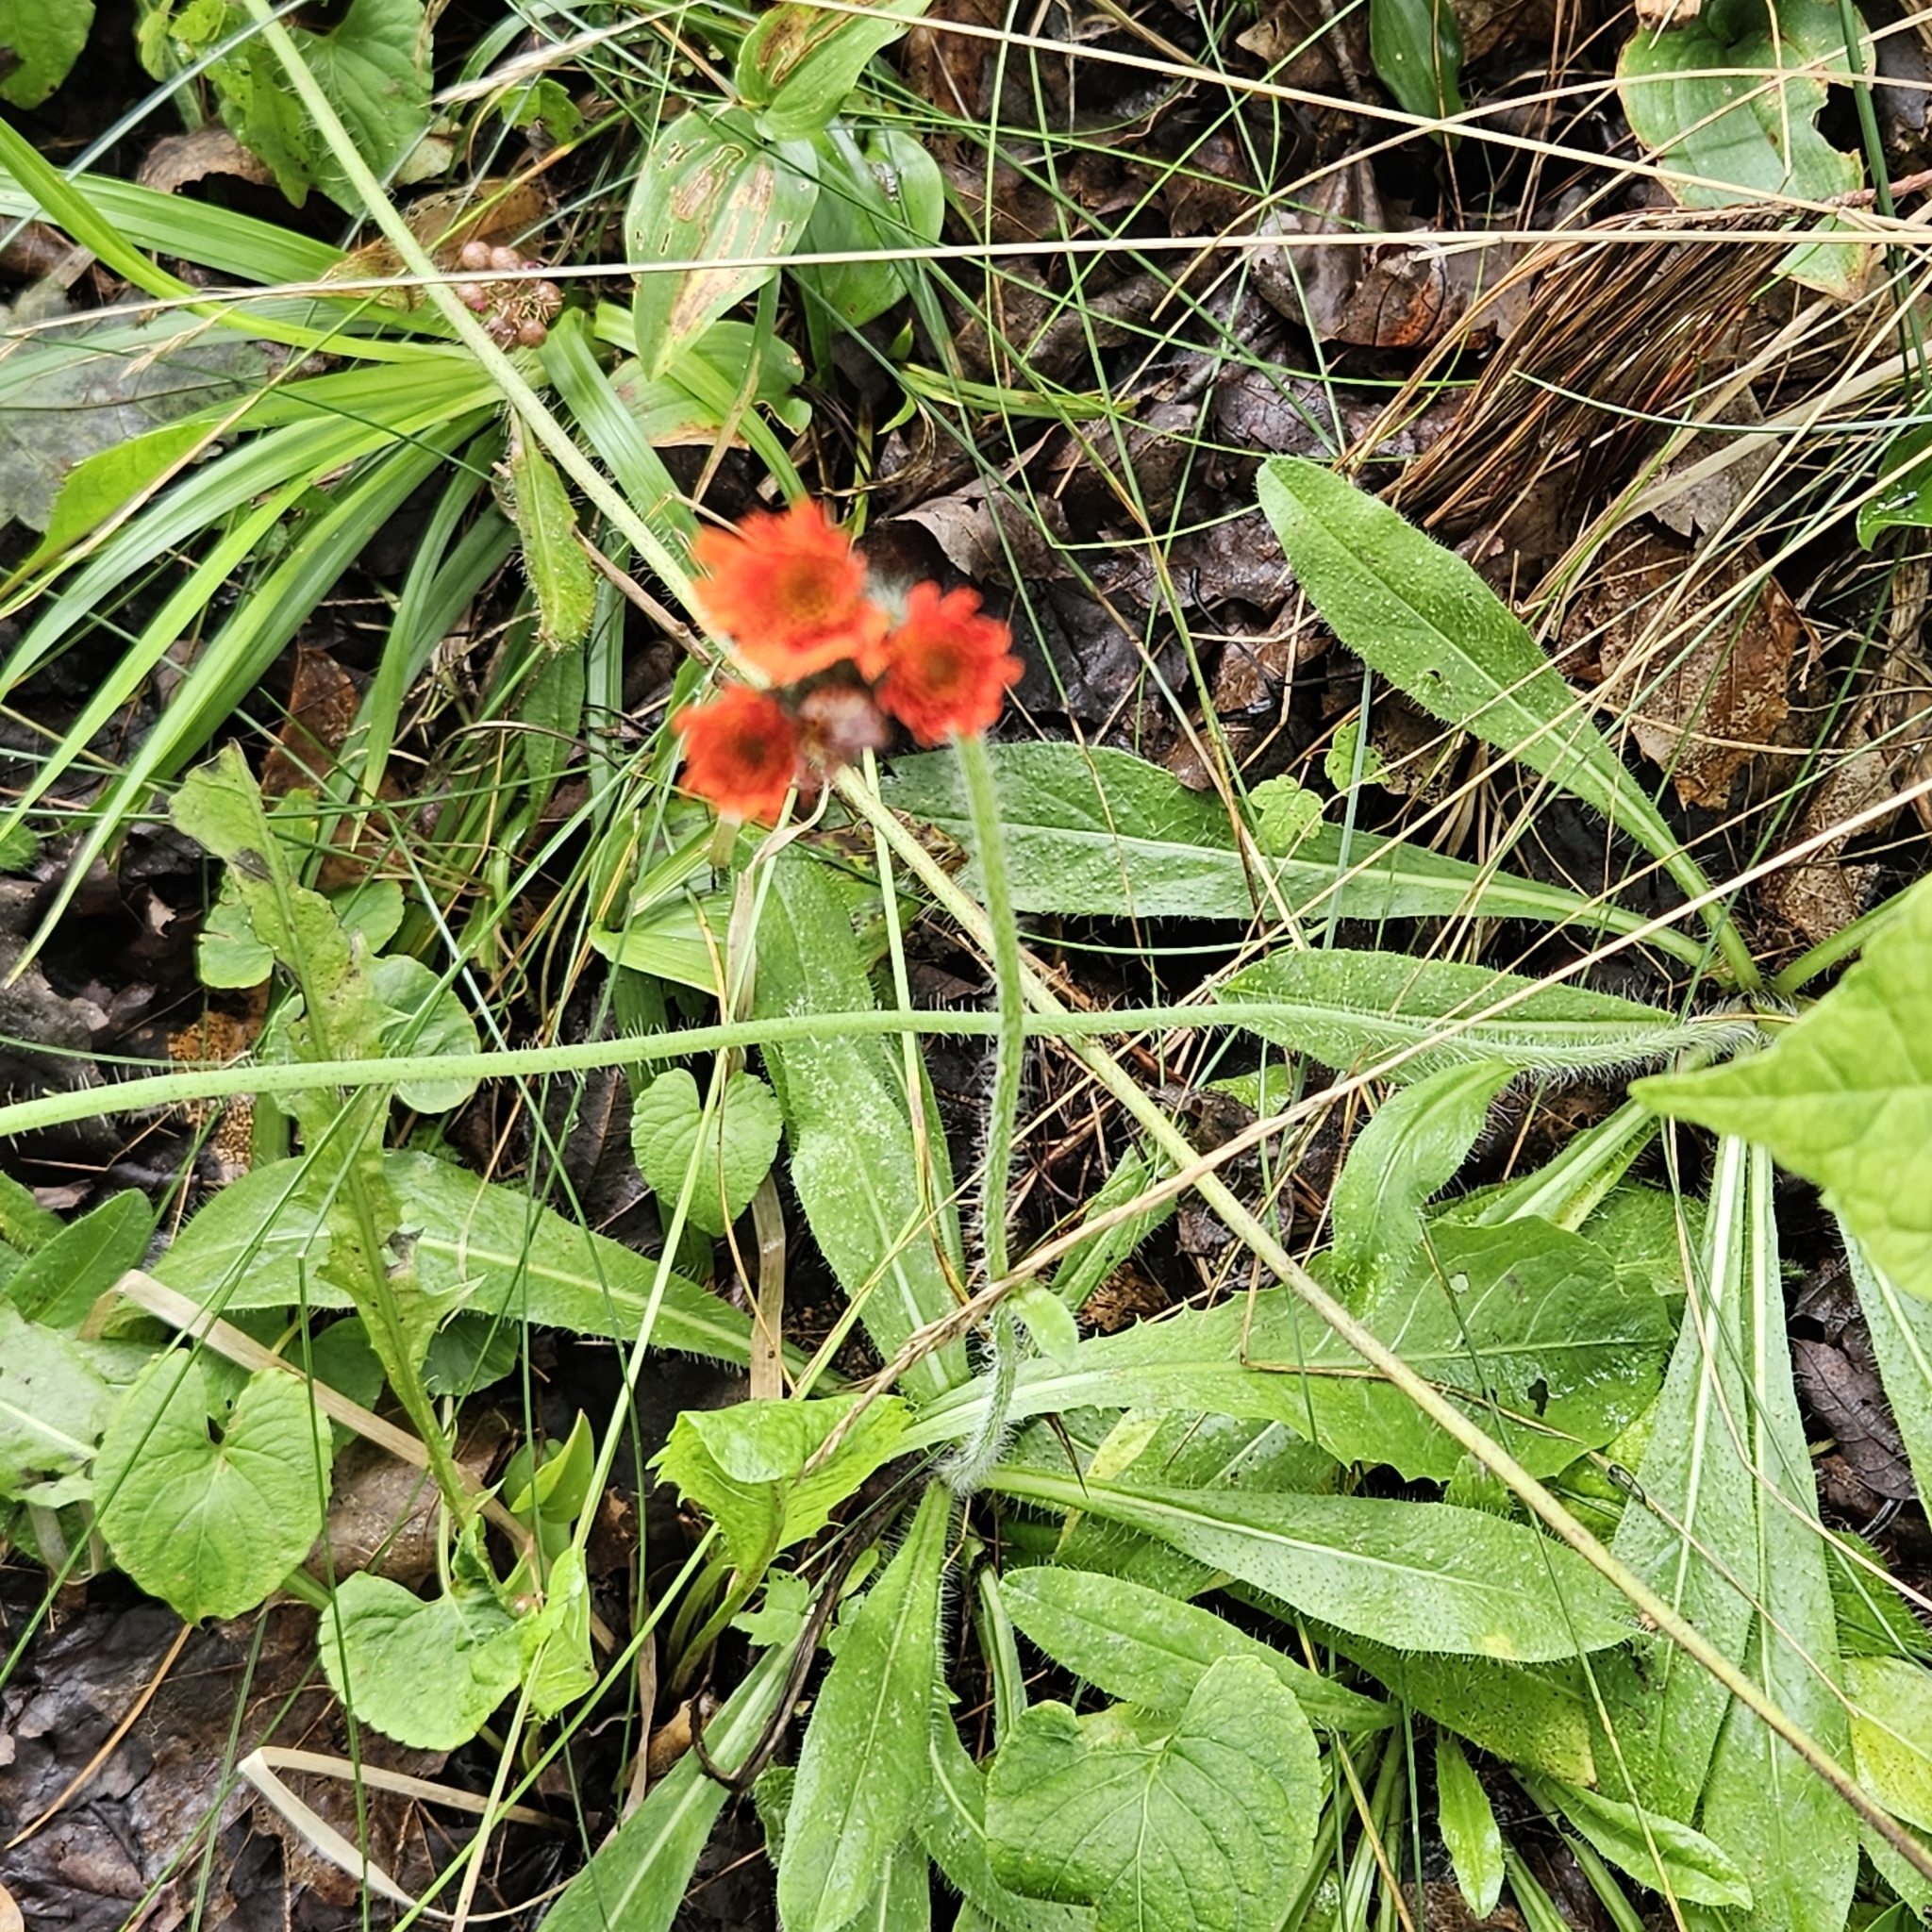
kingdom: Plantae
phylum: Tracheophyta
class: Magnoliopsida
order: Asterales
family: Asteraceae
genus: Pilosella
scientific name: Pilosella aurantiaca
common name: Fox-and-cubs
